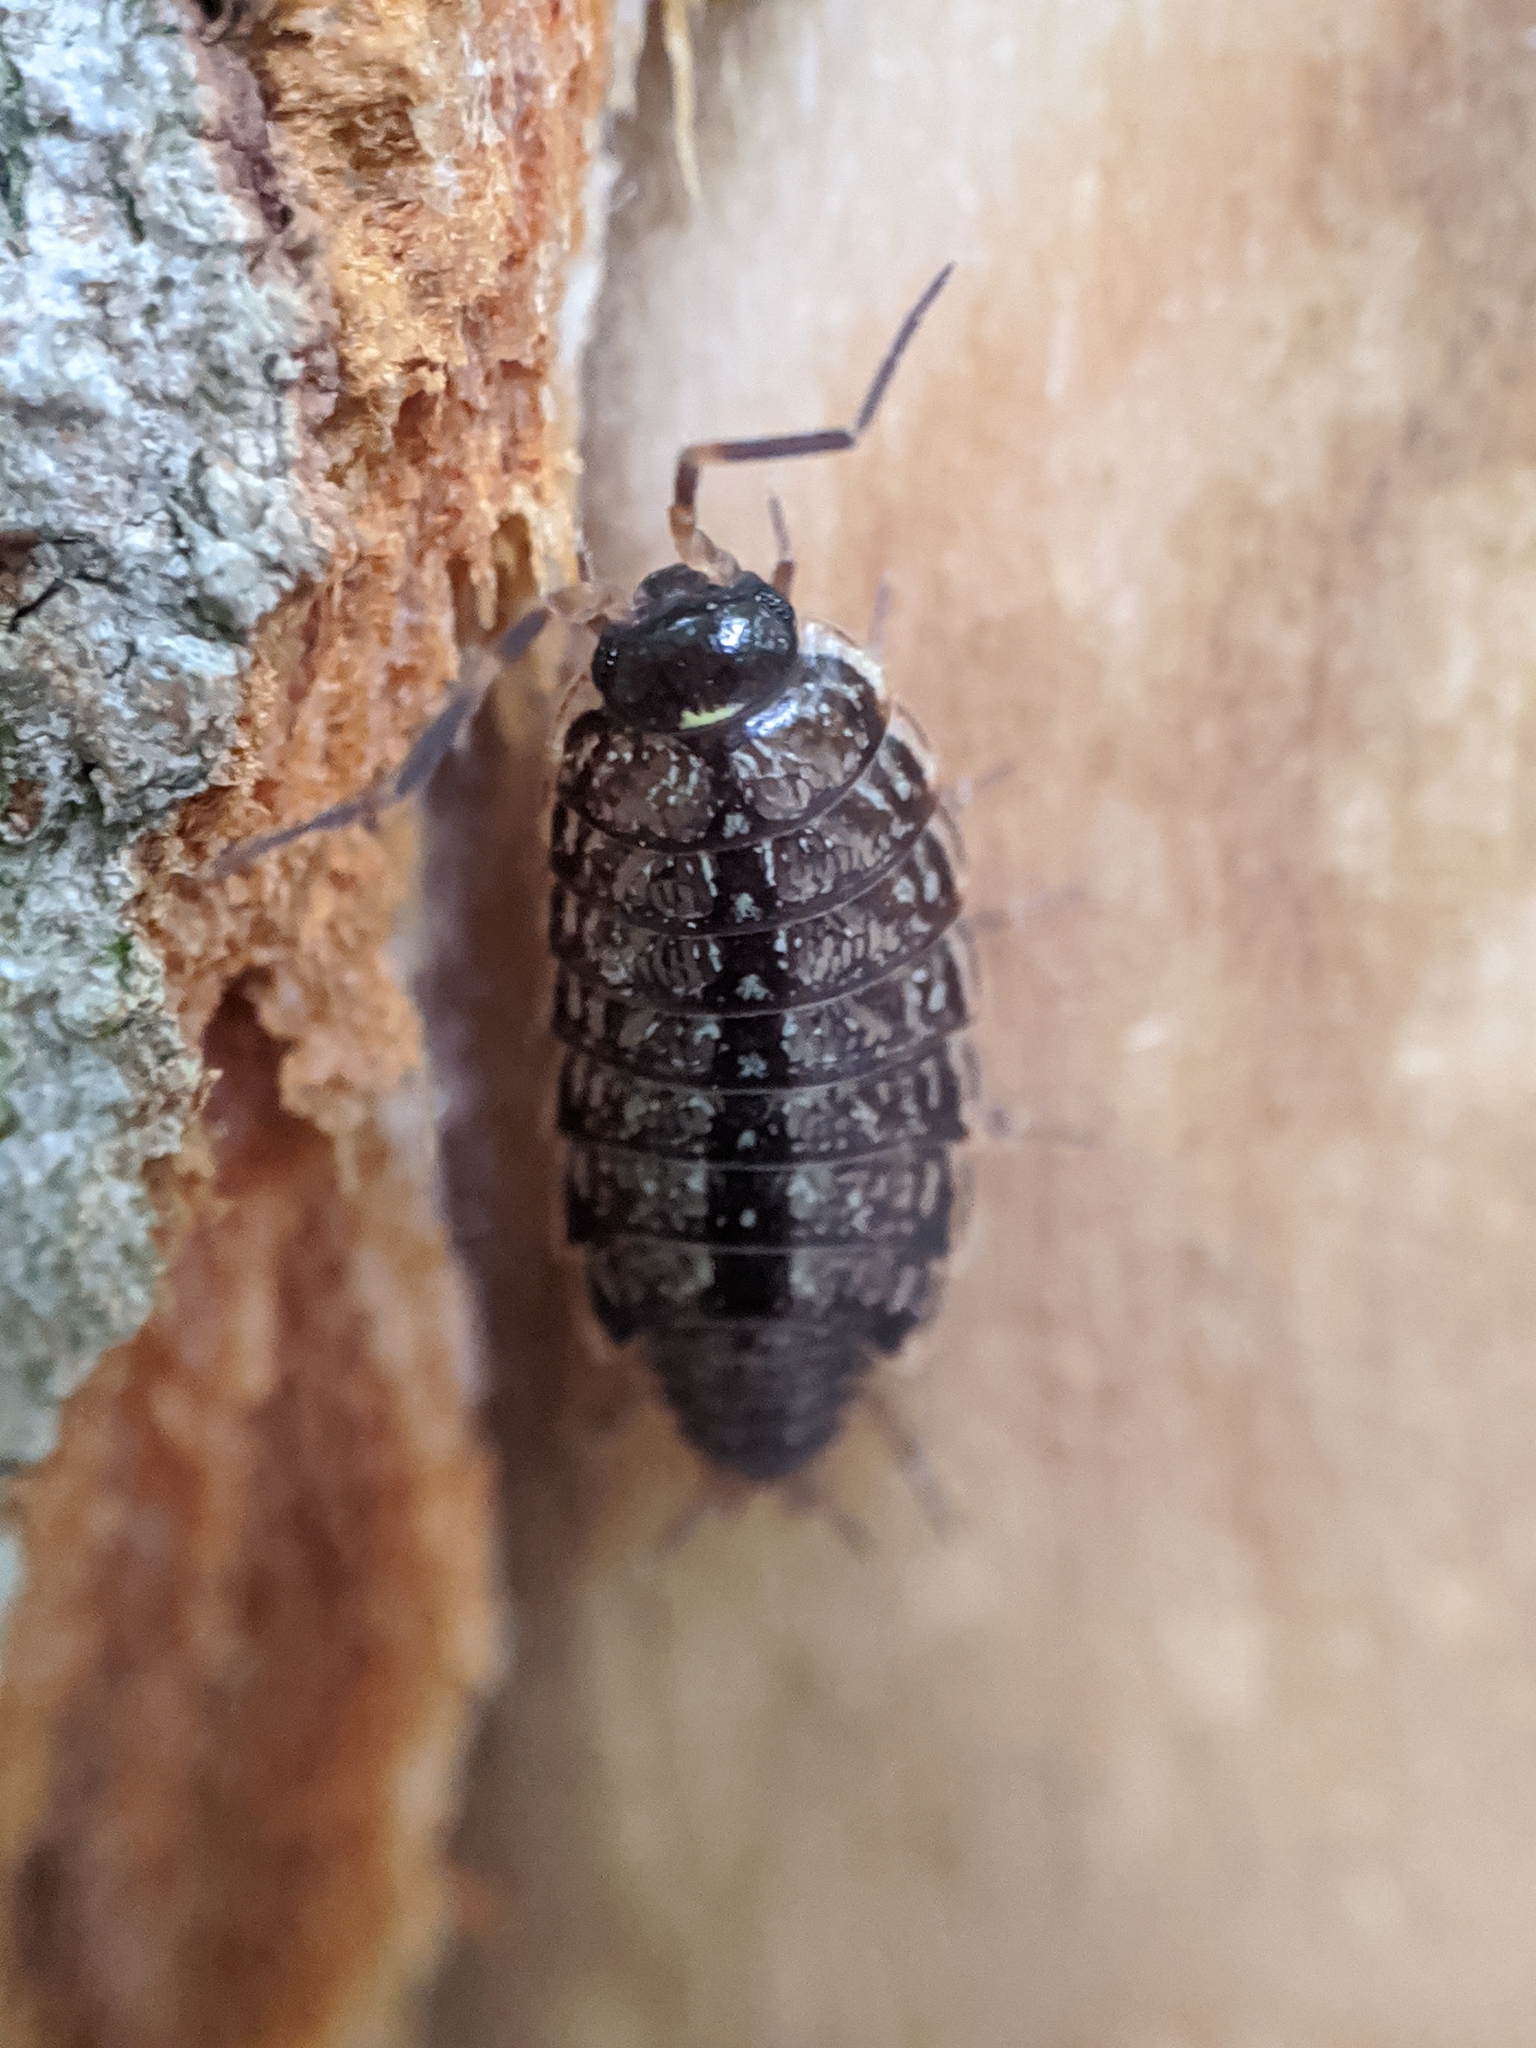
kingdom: Animalia
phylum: Arthropoda
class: Malacostraca
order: Isopoda
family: Philosciidae
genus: Philoscia
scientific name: Philoscia muscorum
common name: Common striped woodlouse
